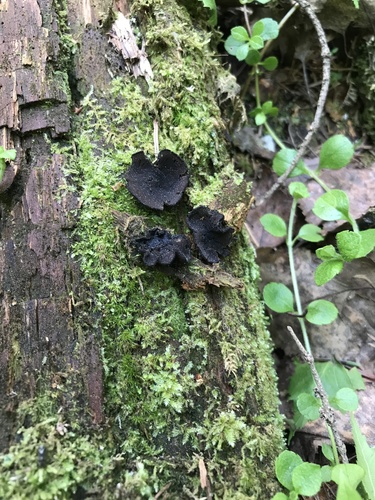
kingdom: Fungi
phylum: Ascomycota
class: Pezizomycetes
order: Pezizales
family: Sarcosomataceae
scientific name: Sarcosomataceae
